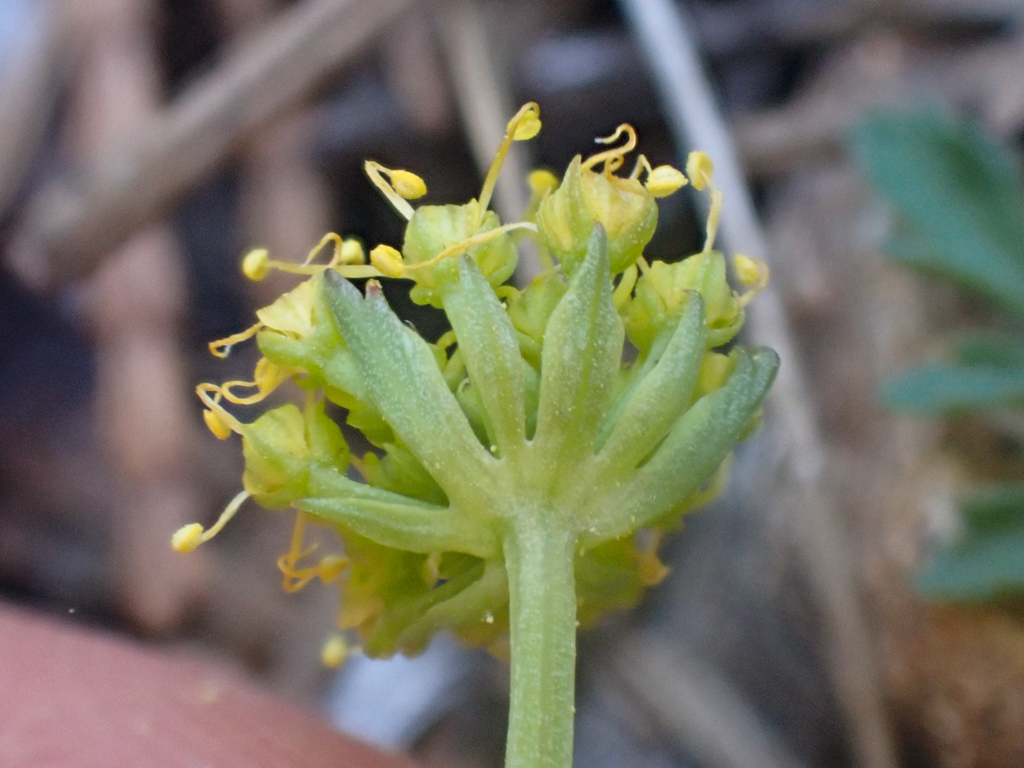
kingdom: Plantae
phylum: Tracheophyta
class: Magnoliopsida
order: Apiales
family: Apiaceae
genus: Pteryxia
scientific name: Pteryxia terebinthina
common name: Turpentine wavewing
